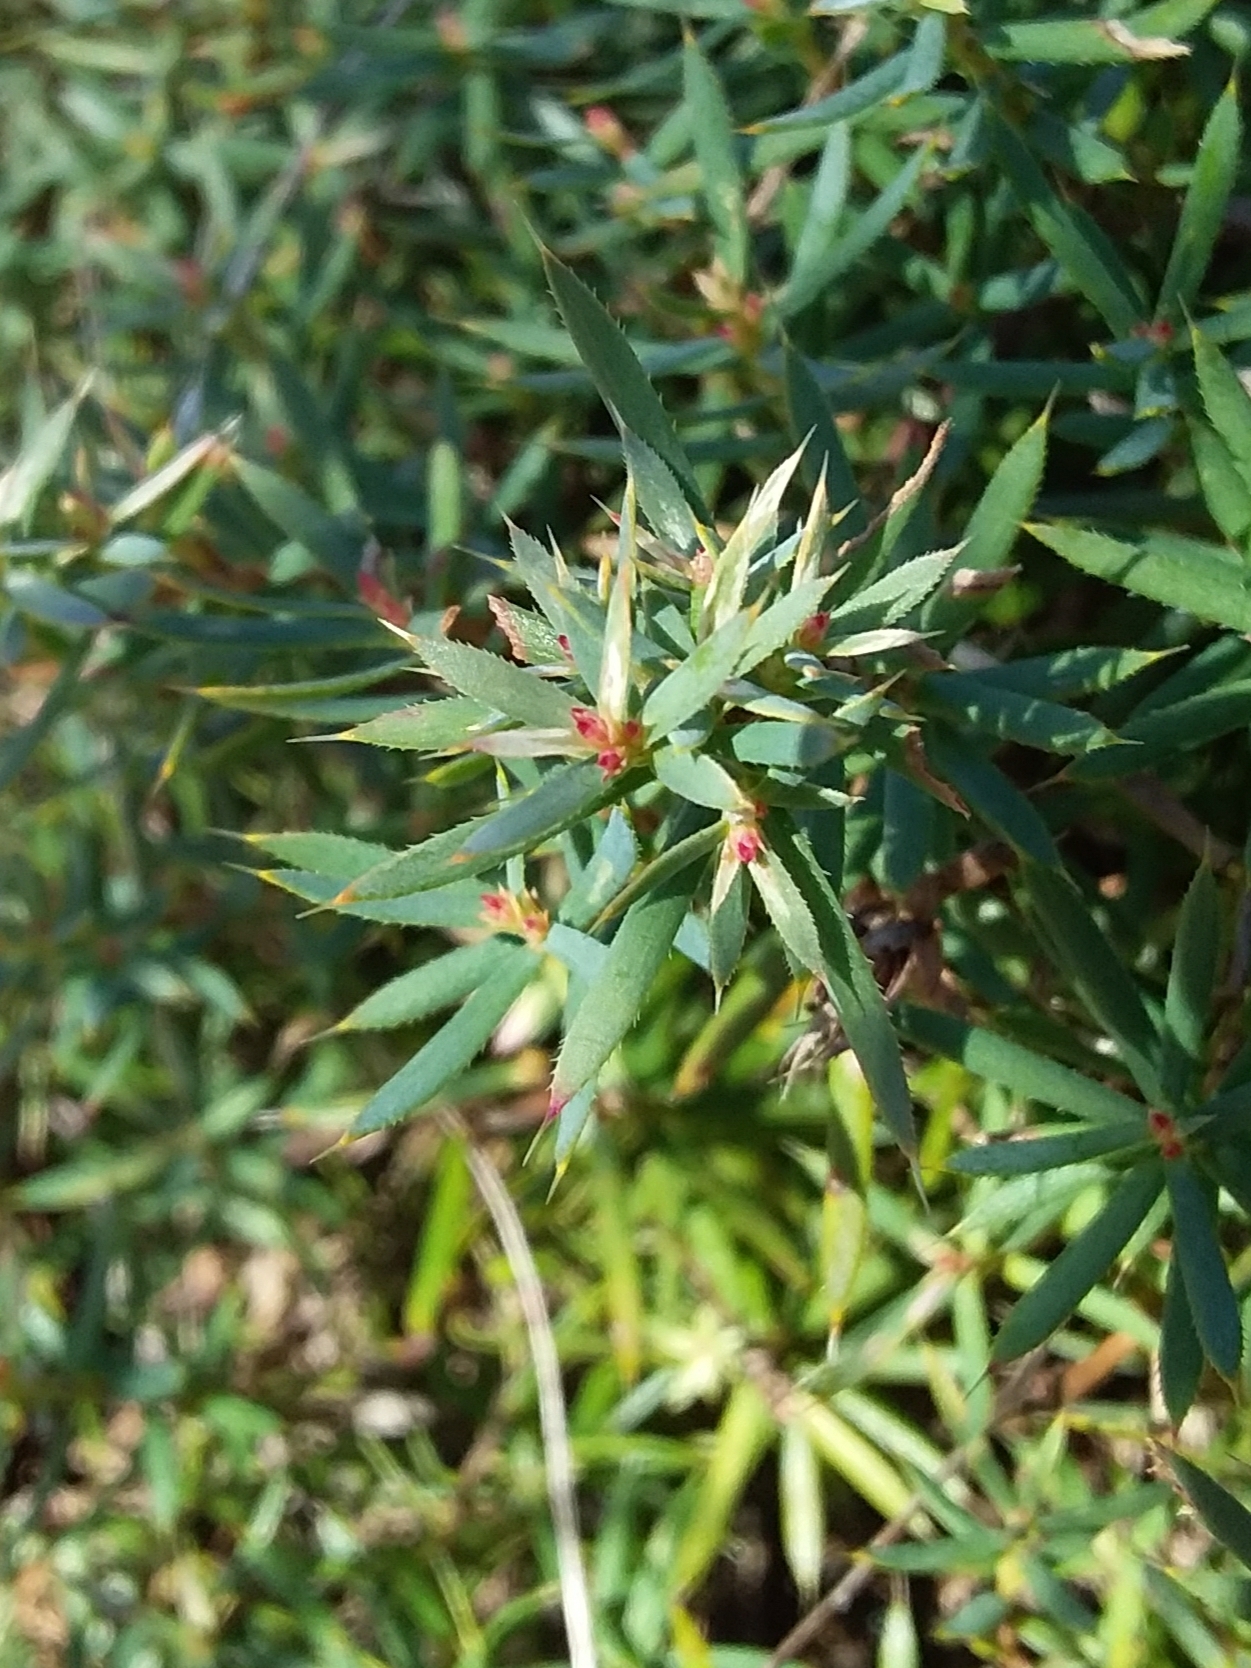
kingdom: Plantae
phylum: Tracheophyta
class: Magnoliopsida
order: Ericales
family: Ericaceae
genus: Styphelia
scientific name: Styphelia humifusa
